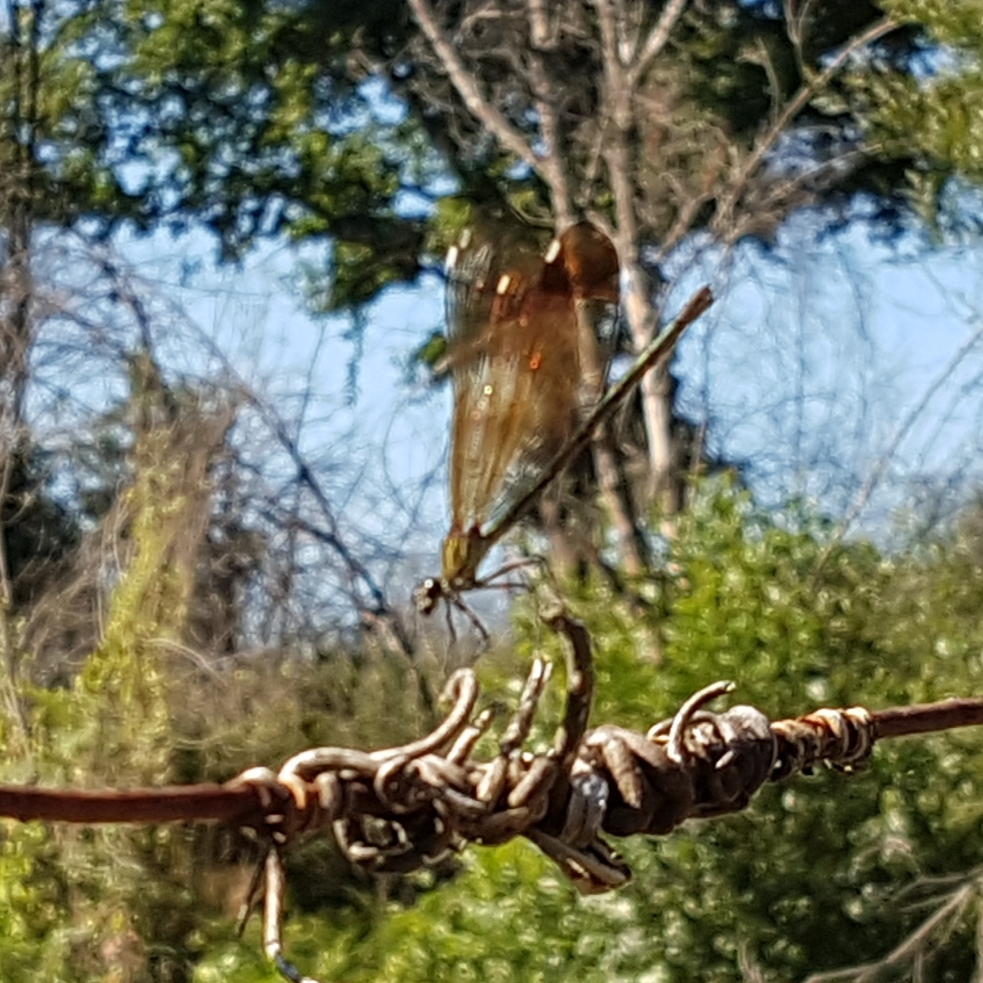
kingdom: Animalia
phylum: Arthropoda
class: Insecta
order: Odonata
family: Calopterygidae
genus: Calopteryx
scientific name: Calopteryx haemorrhoidalis
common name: Copper demoiselle
